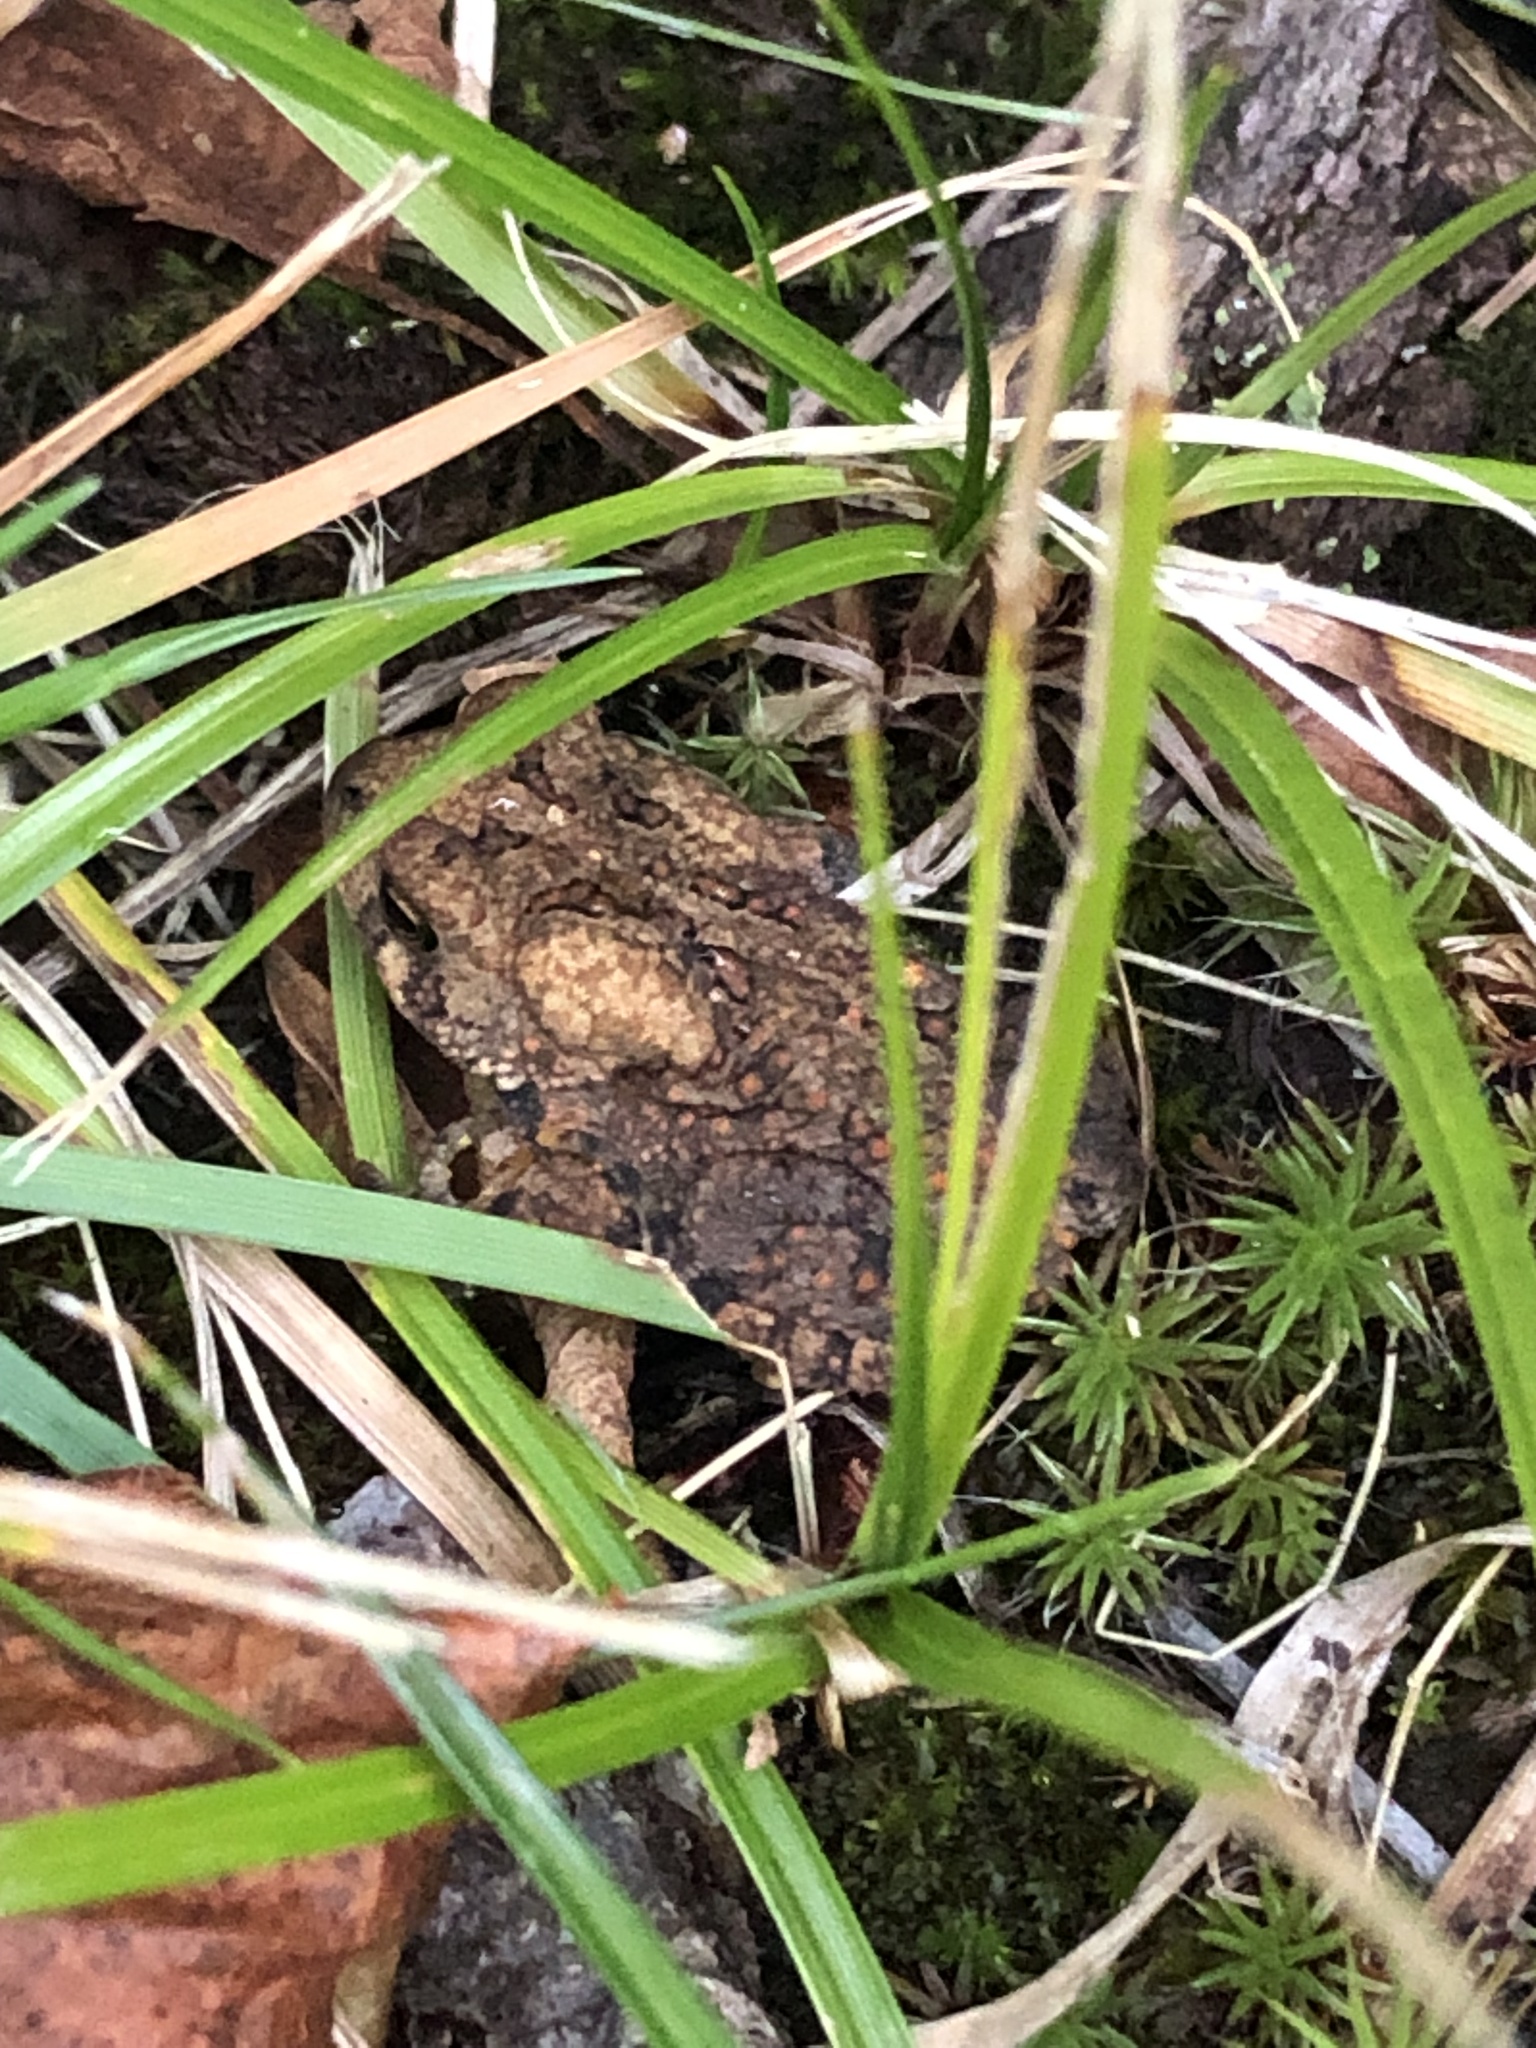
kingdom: Animalia
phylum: Chordata
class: Amphibia
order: Anura
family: Bufonidae
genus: Anaxyrus
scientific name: Anaxyrus americanus
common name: American toad
